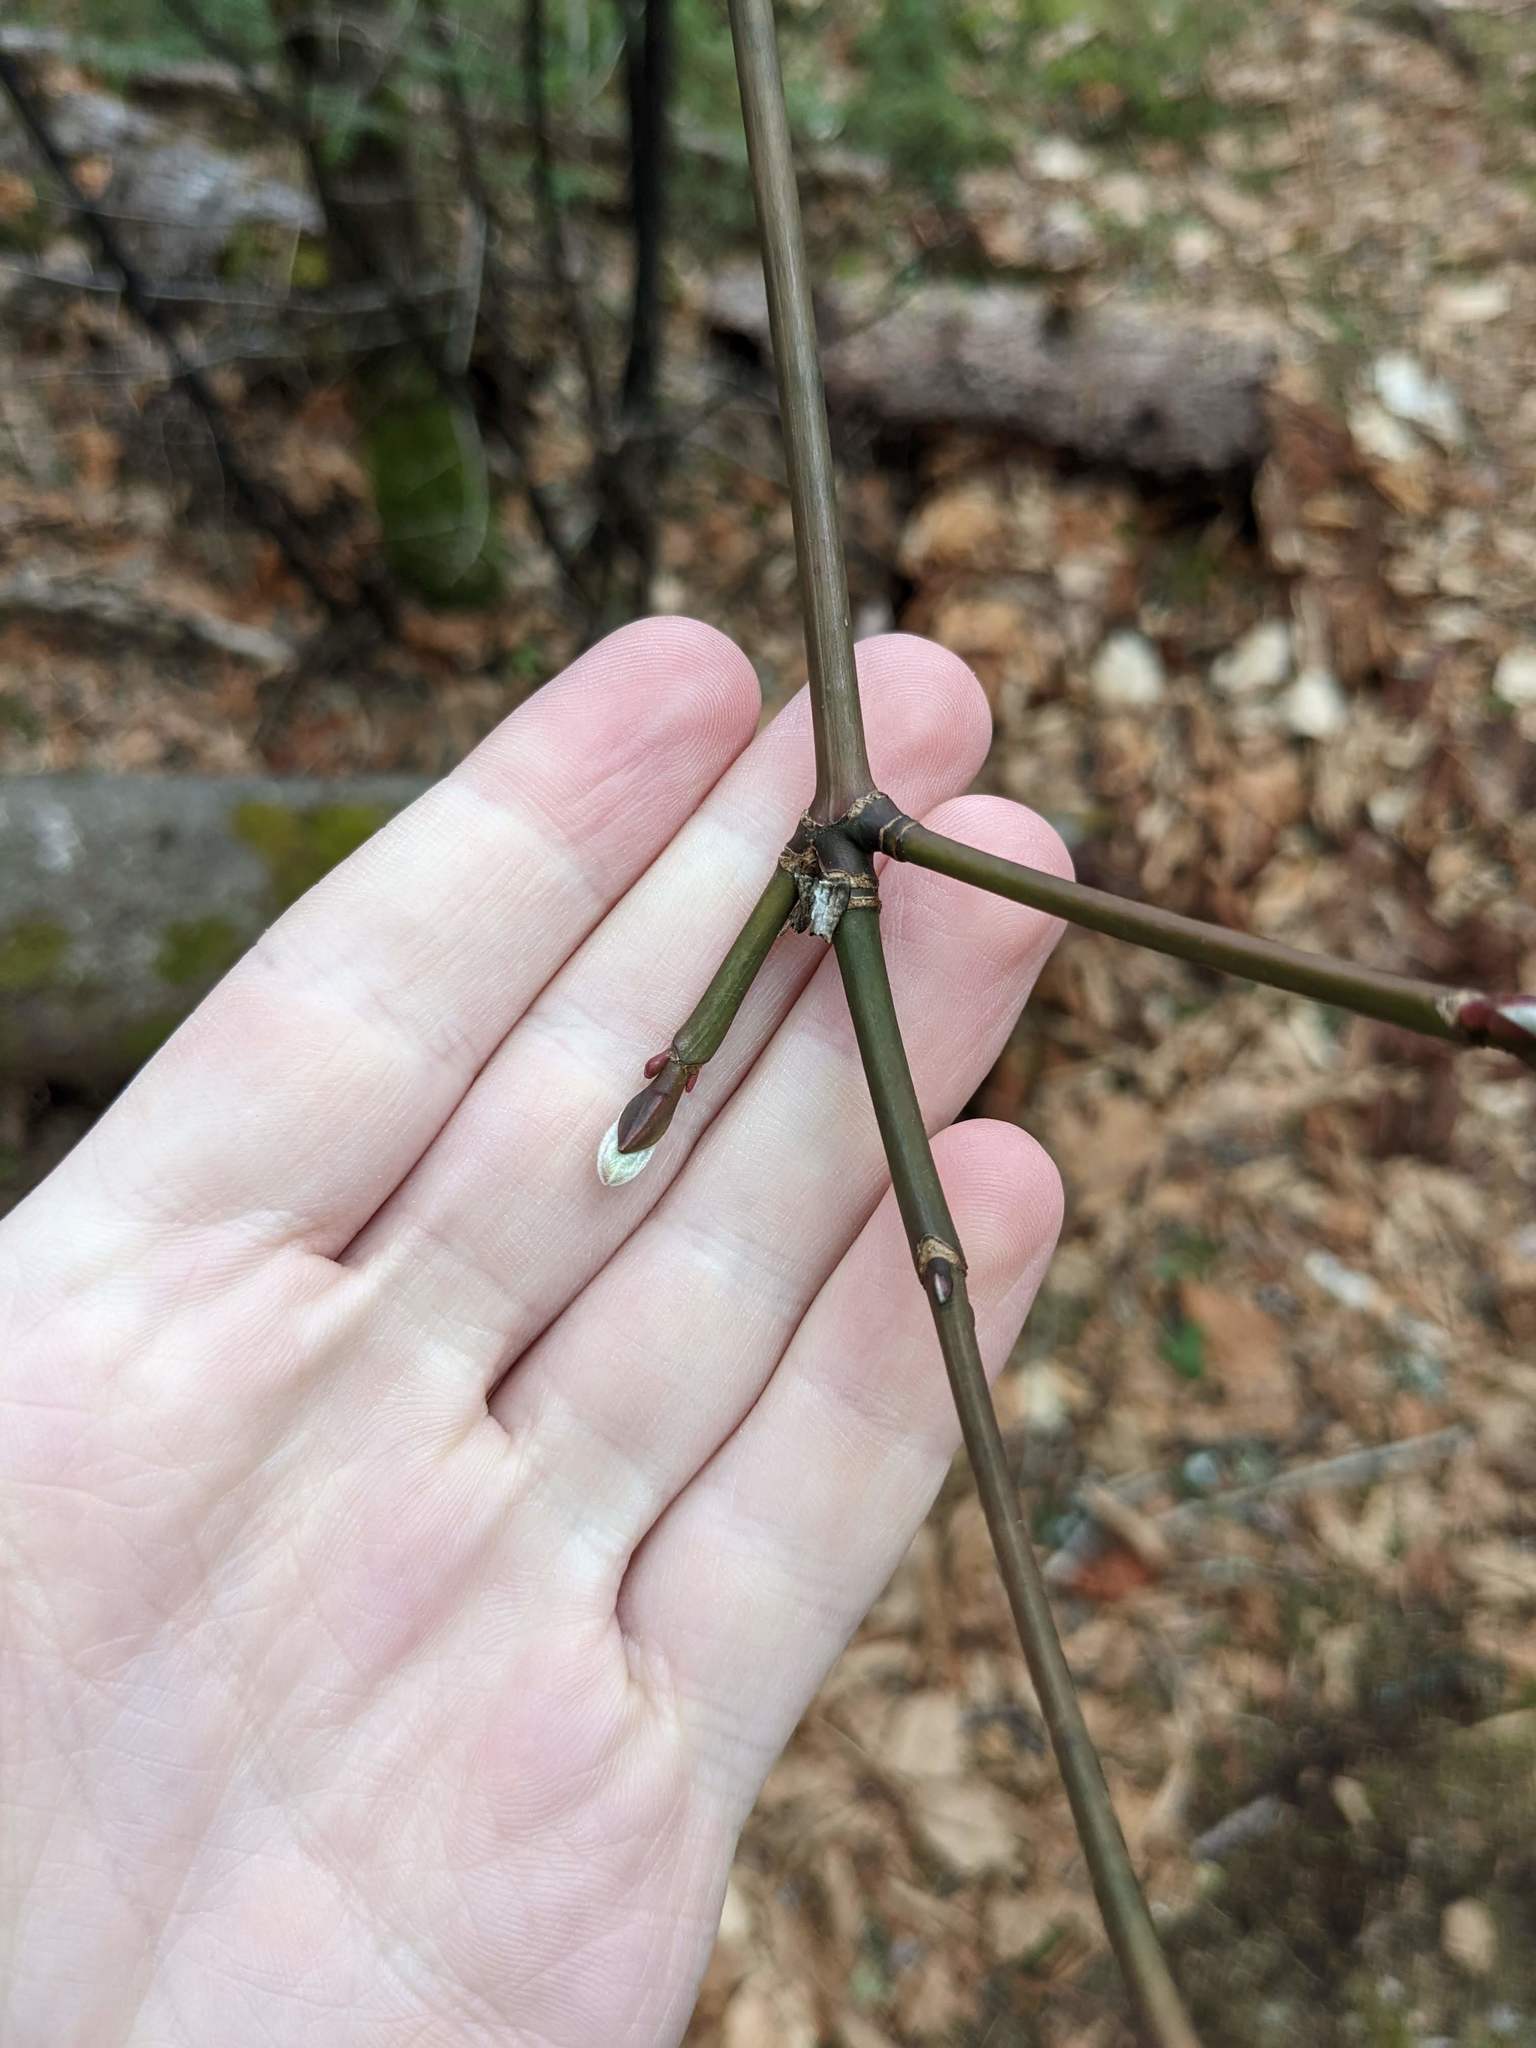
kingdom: Plantae
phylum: Tracheophyta
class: Magnoliopsida
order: Sapindales
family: Sapindaceae
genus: Acer
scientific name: Acer pensylvanicum
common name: Moosewood
